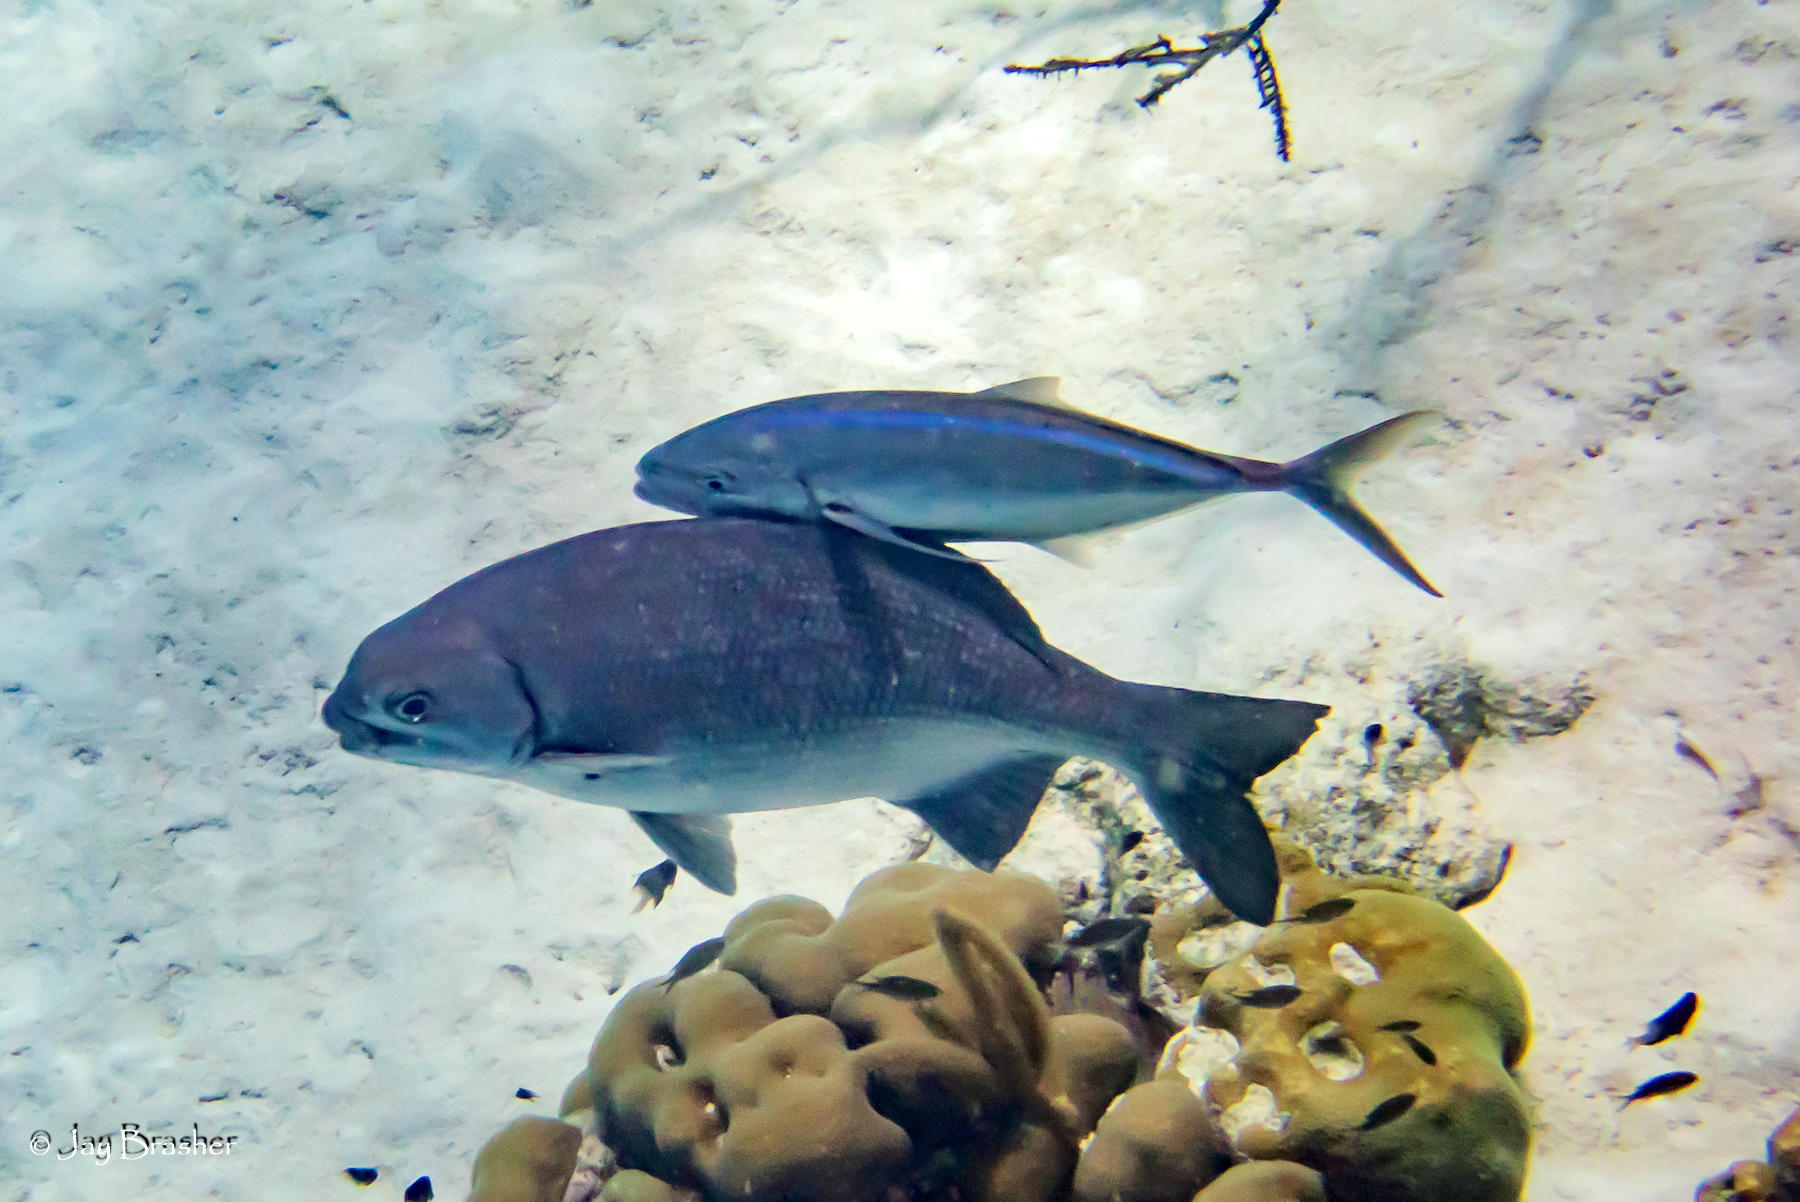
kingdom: Animalia
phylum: Chordata
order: Perciformes
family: Kyphosidae
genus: Kyphosus
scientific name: Kyphosus cinerascens
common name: Topsail drummer
